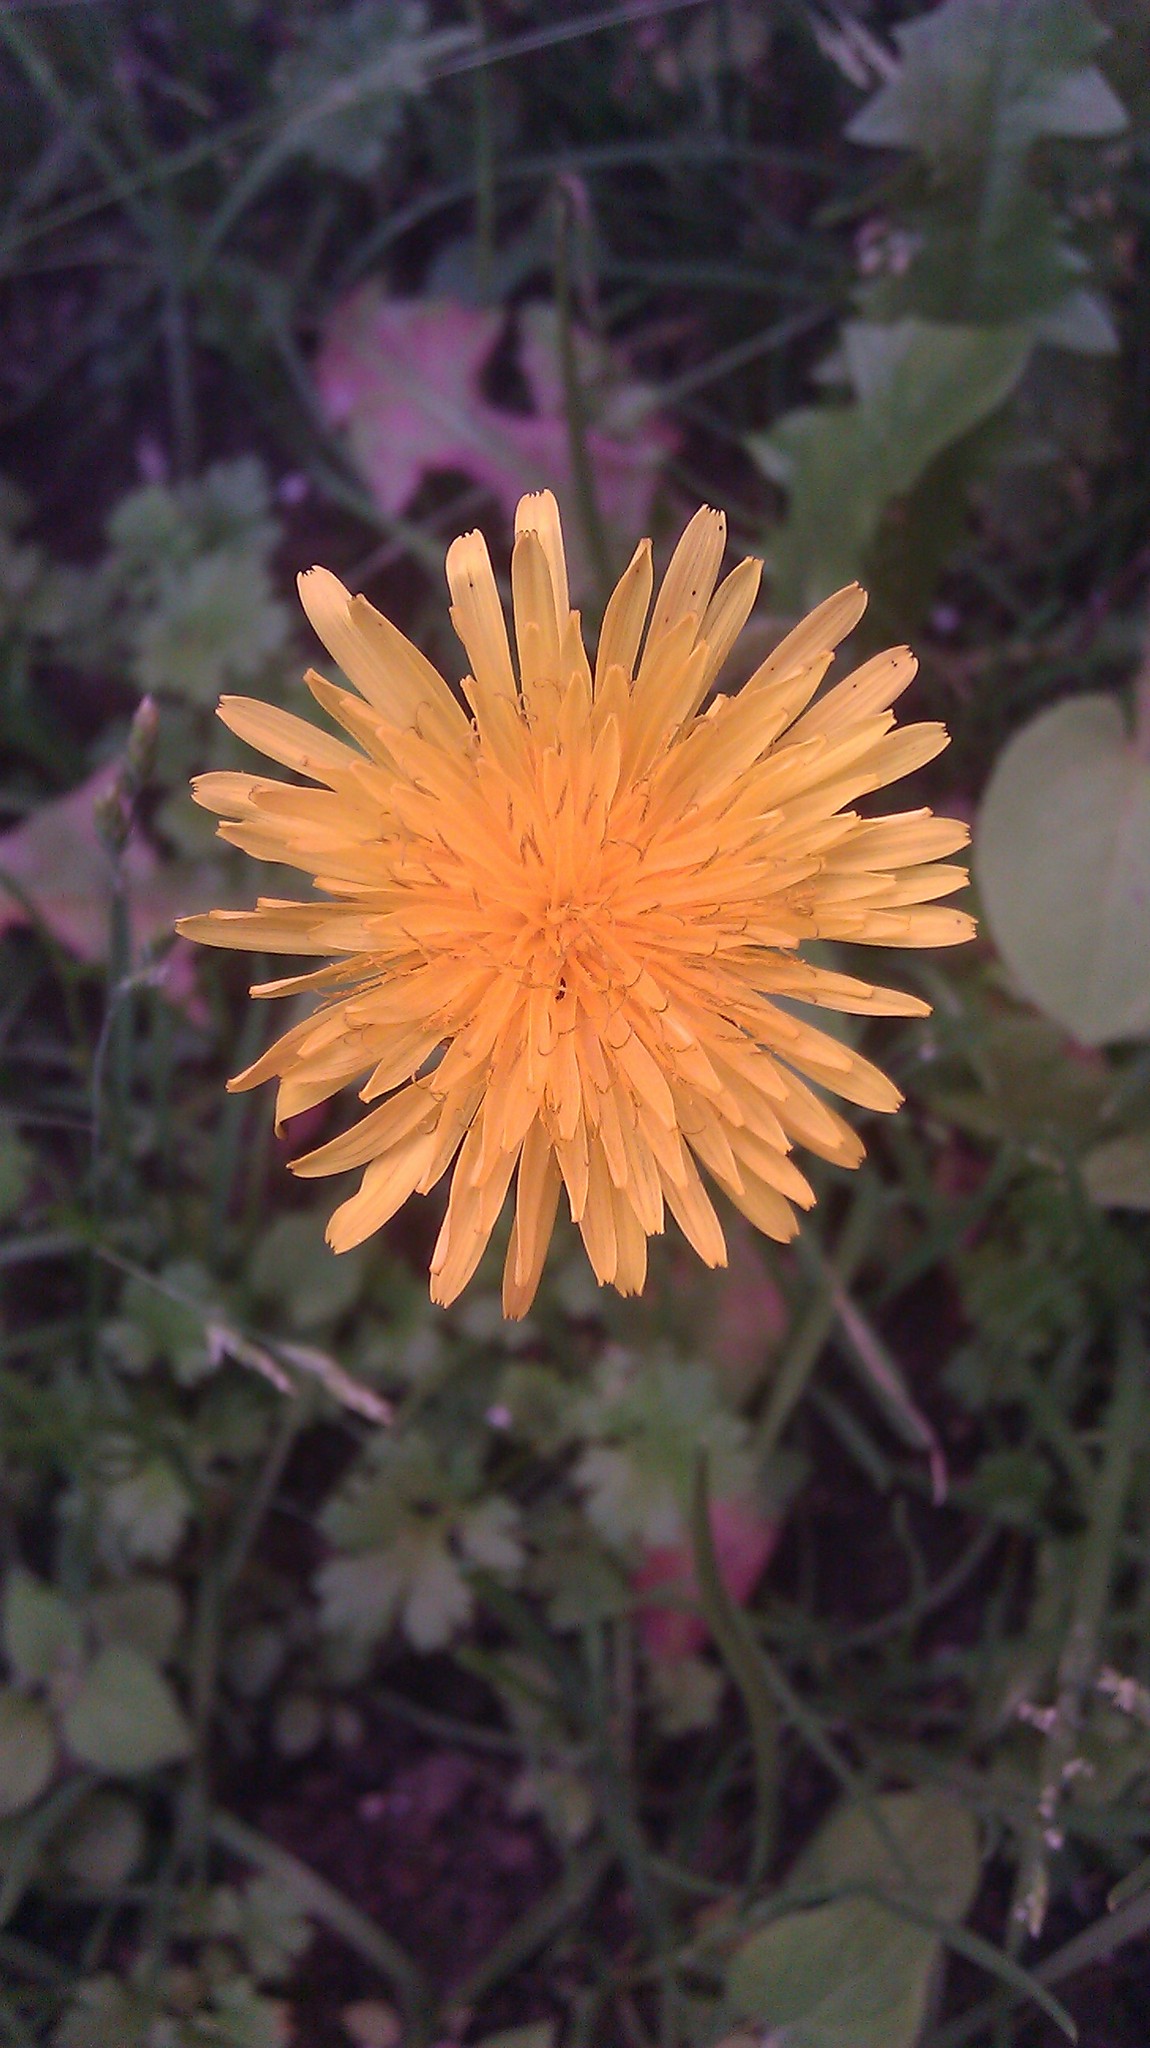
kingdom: Plantae
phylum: Tracheophyta
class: Magnoliopsida
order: Asterales
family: Asteraceae
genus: Taraxacum
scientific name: Taraxacum officinale
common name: Common dandelion
